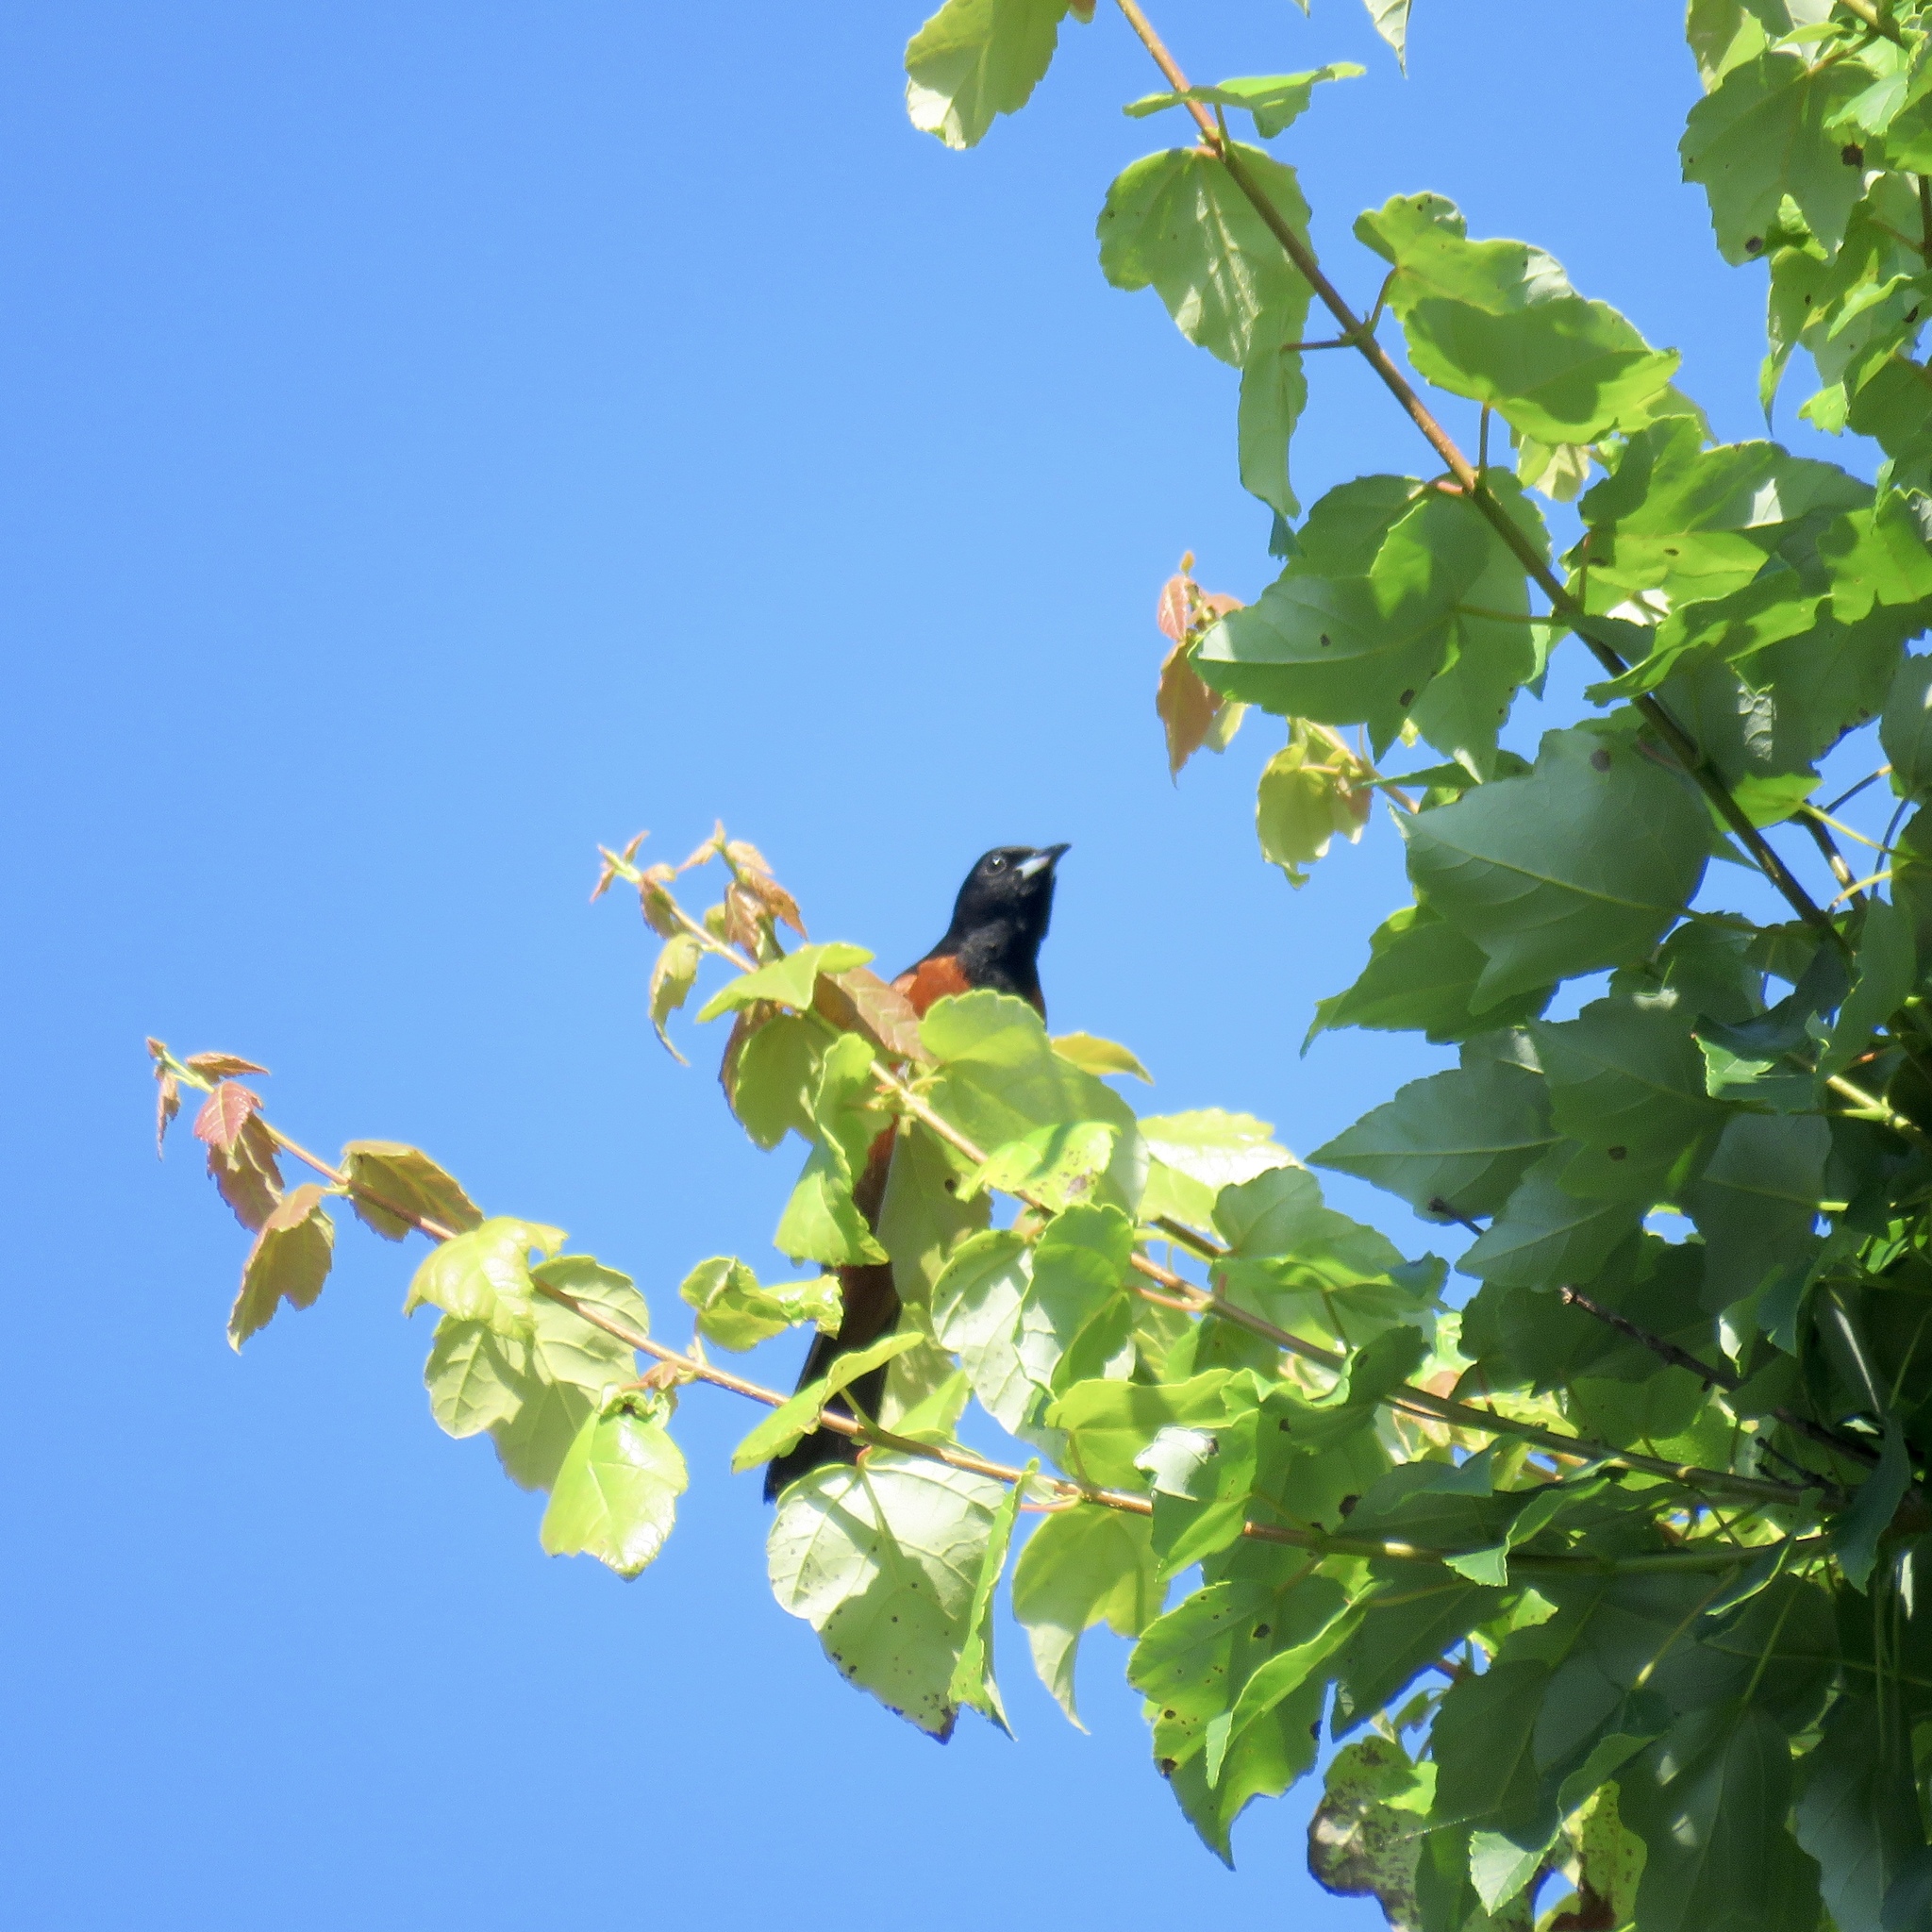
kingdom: Animalia
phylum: Chordata
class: Aves
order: Passeriformes
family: Icteridae
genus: Icterus
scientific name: Icterus spurius
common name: Orchard oriole
